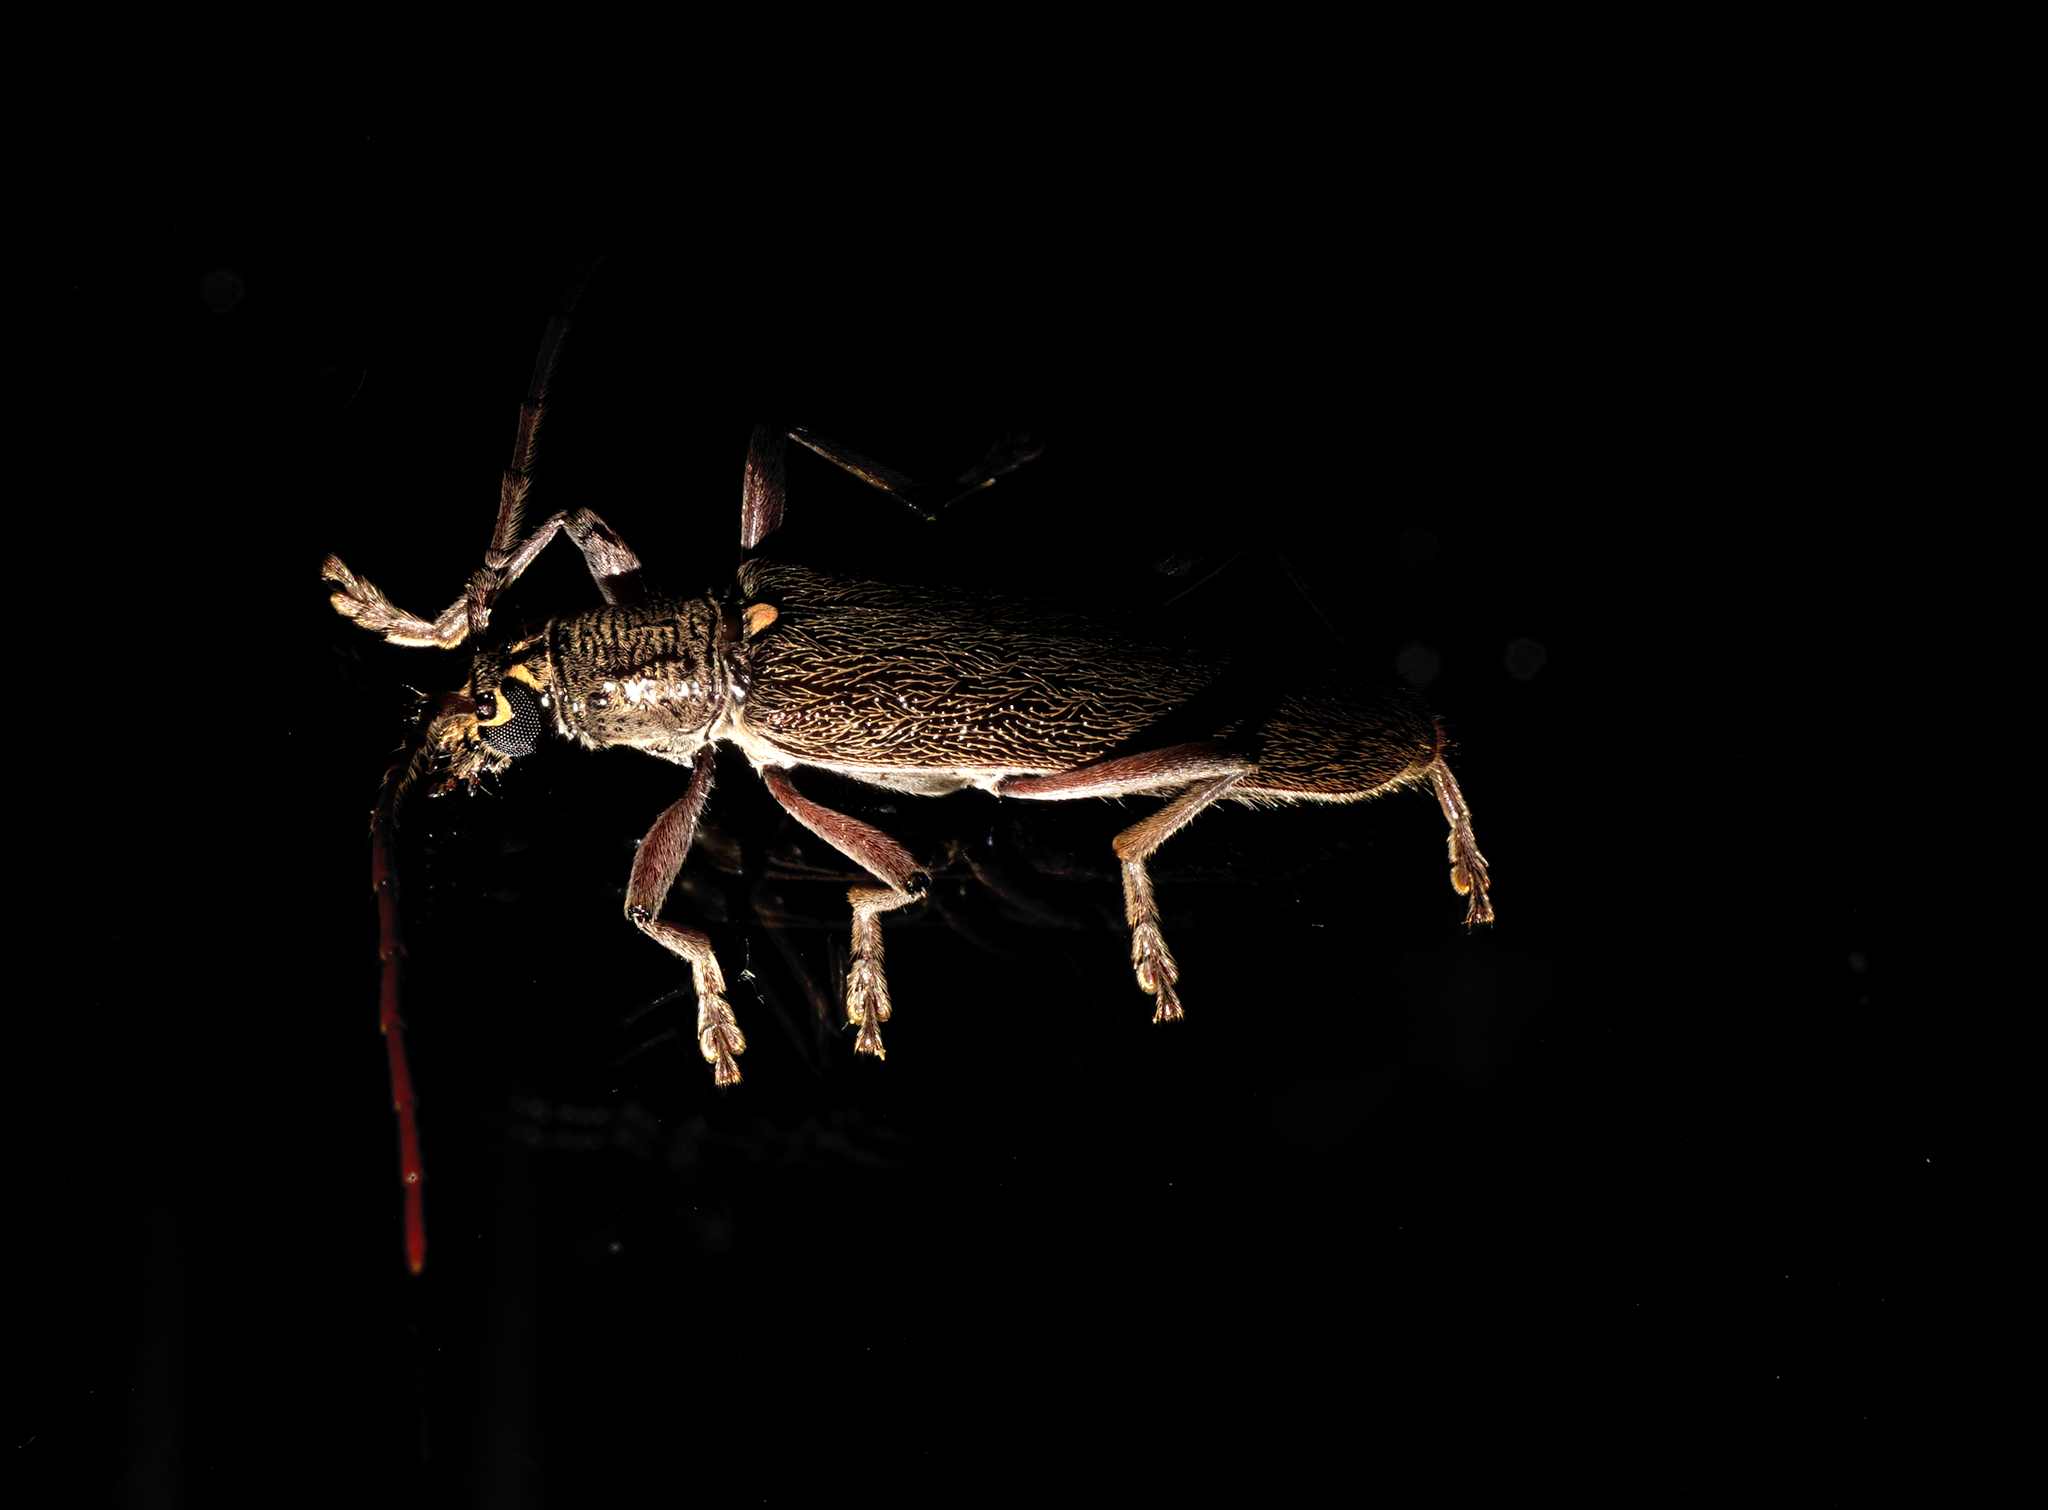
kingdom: Animalia
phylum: Arthropoda
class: Insecta
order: Coleoptera
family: Cerambycidae
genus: Oemona
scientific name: Oemona hirta
